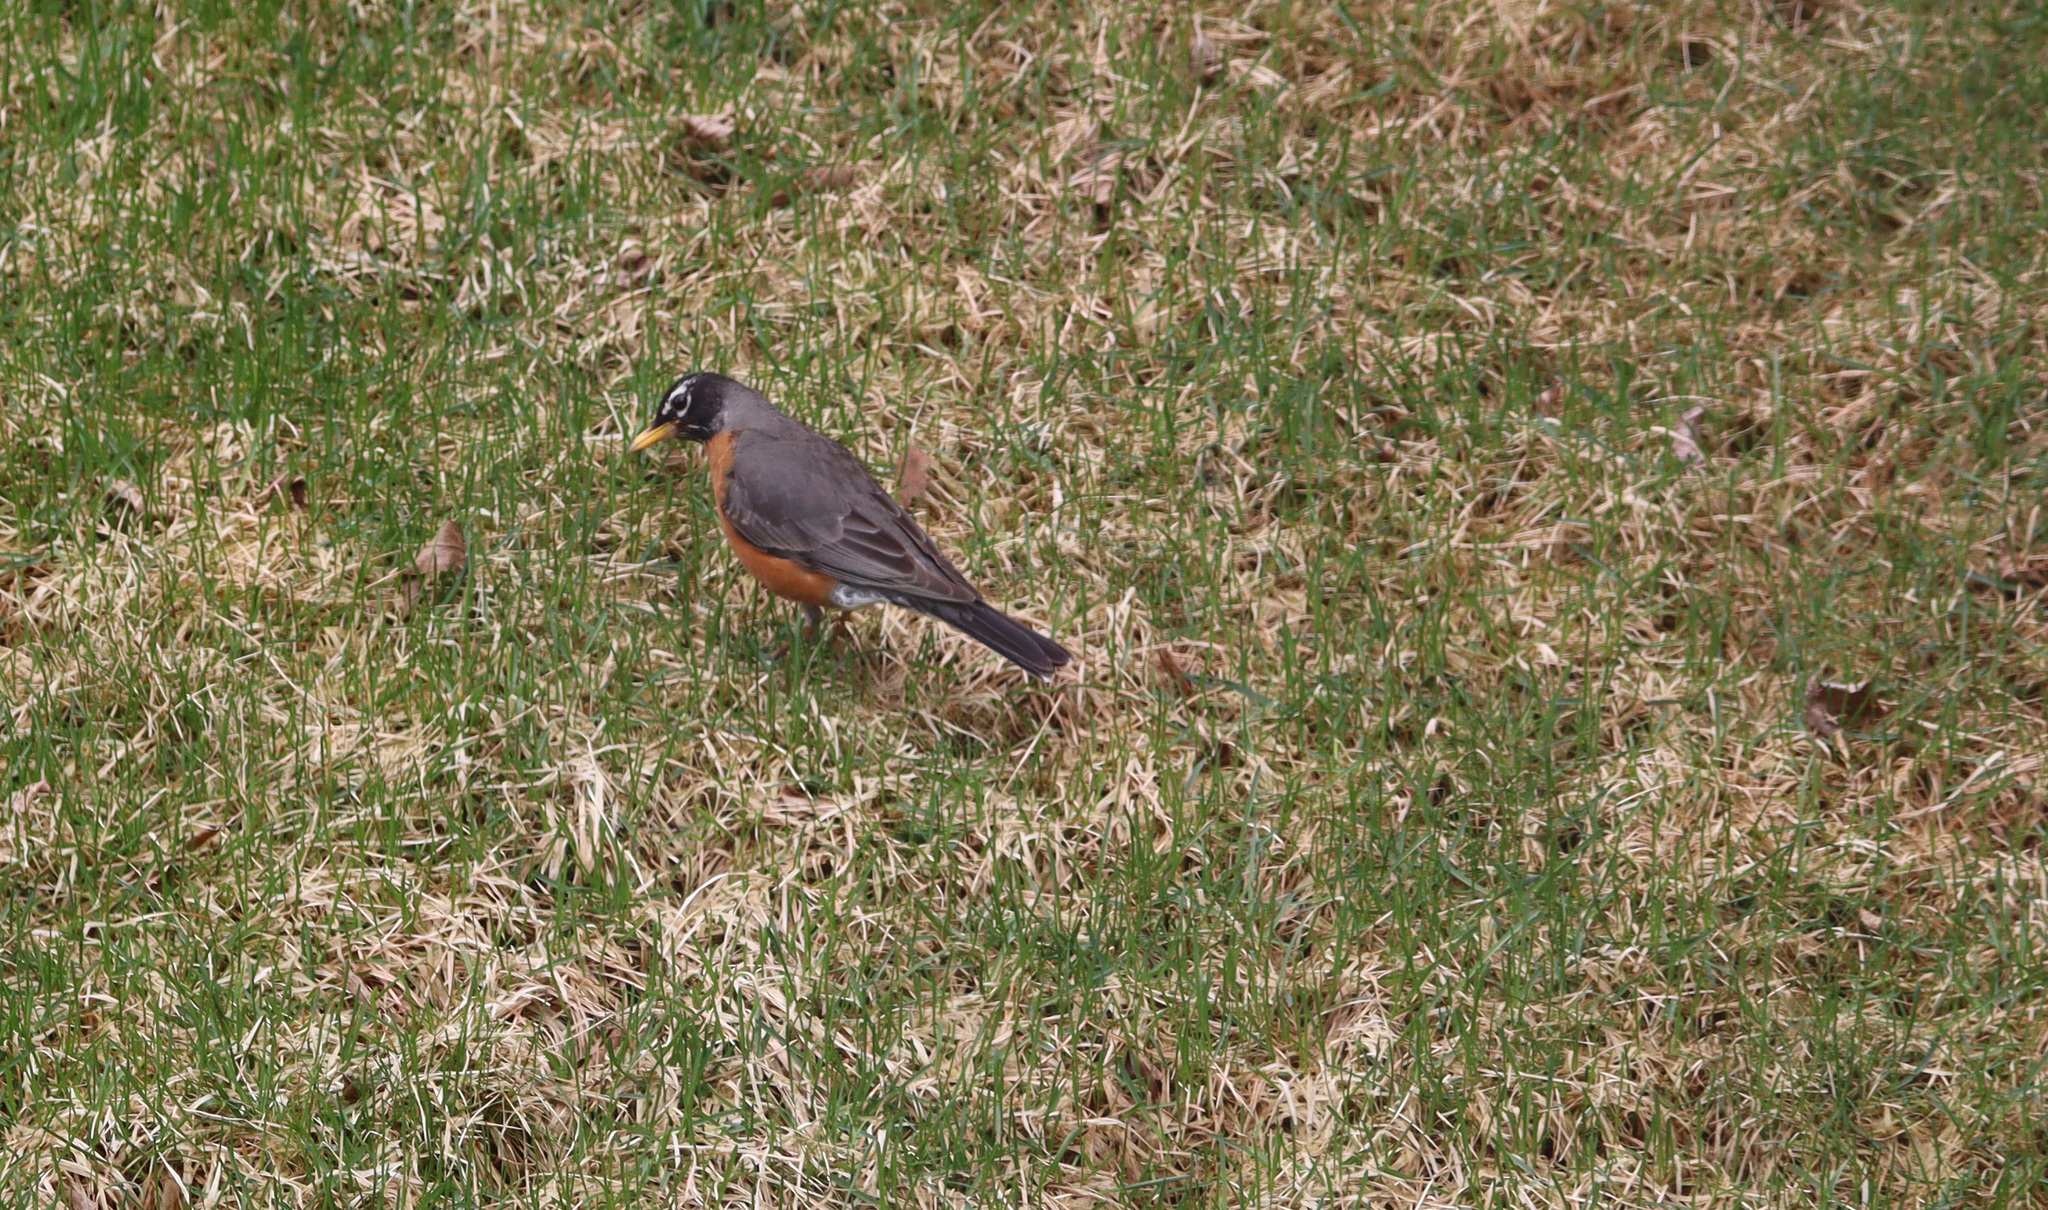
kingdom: Animalia
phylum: Chordata
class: Aves
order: Passeriformes
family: Turdidae
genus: Turdus
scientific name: Turdus migratorius
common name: American robin
